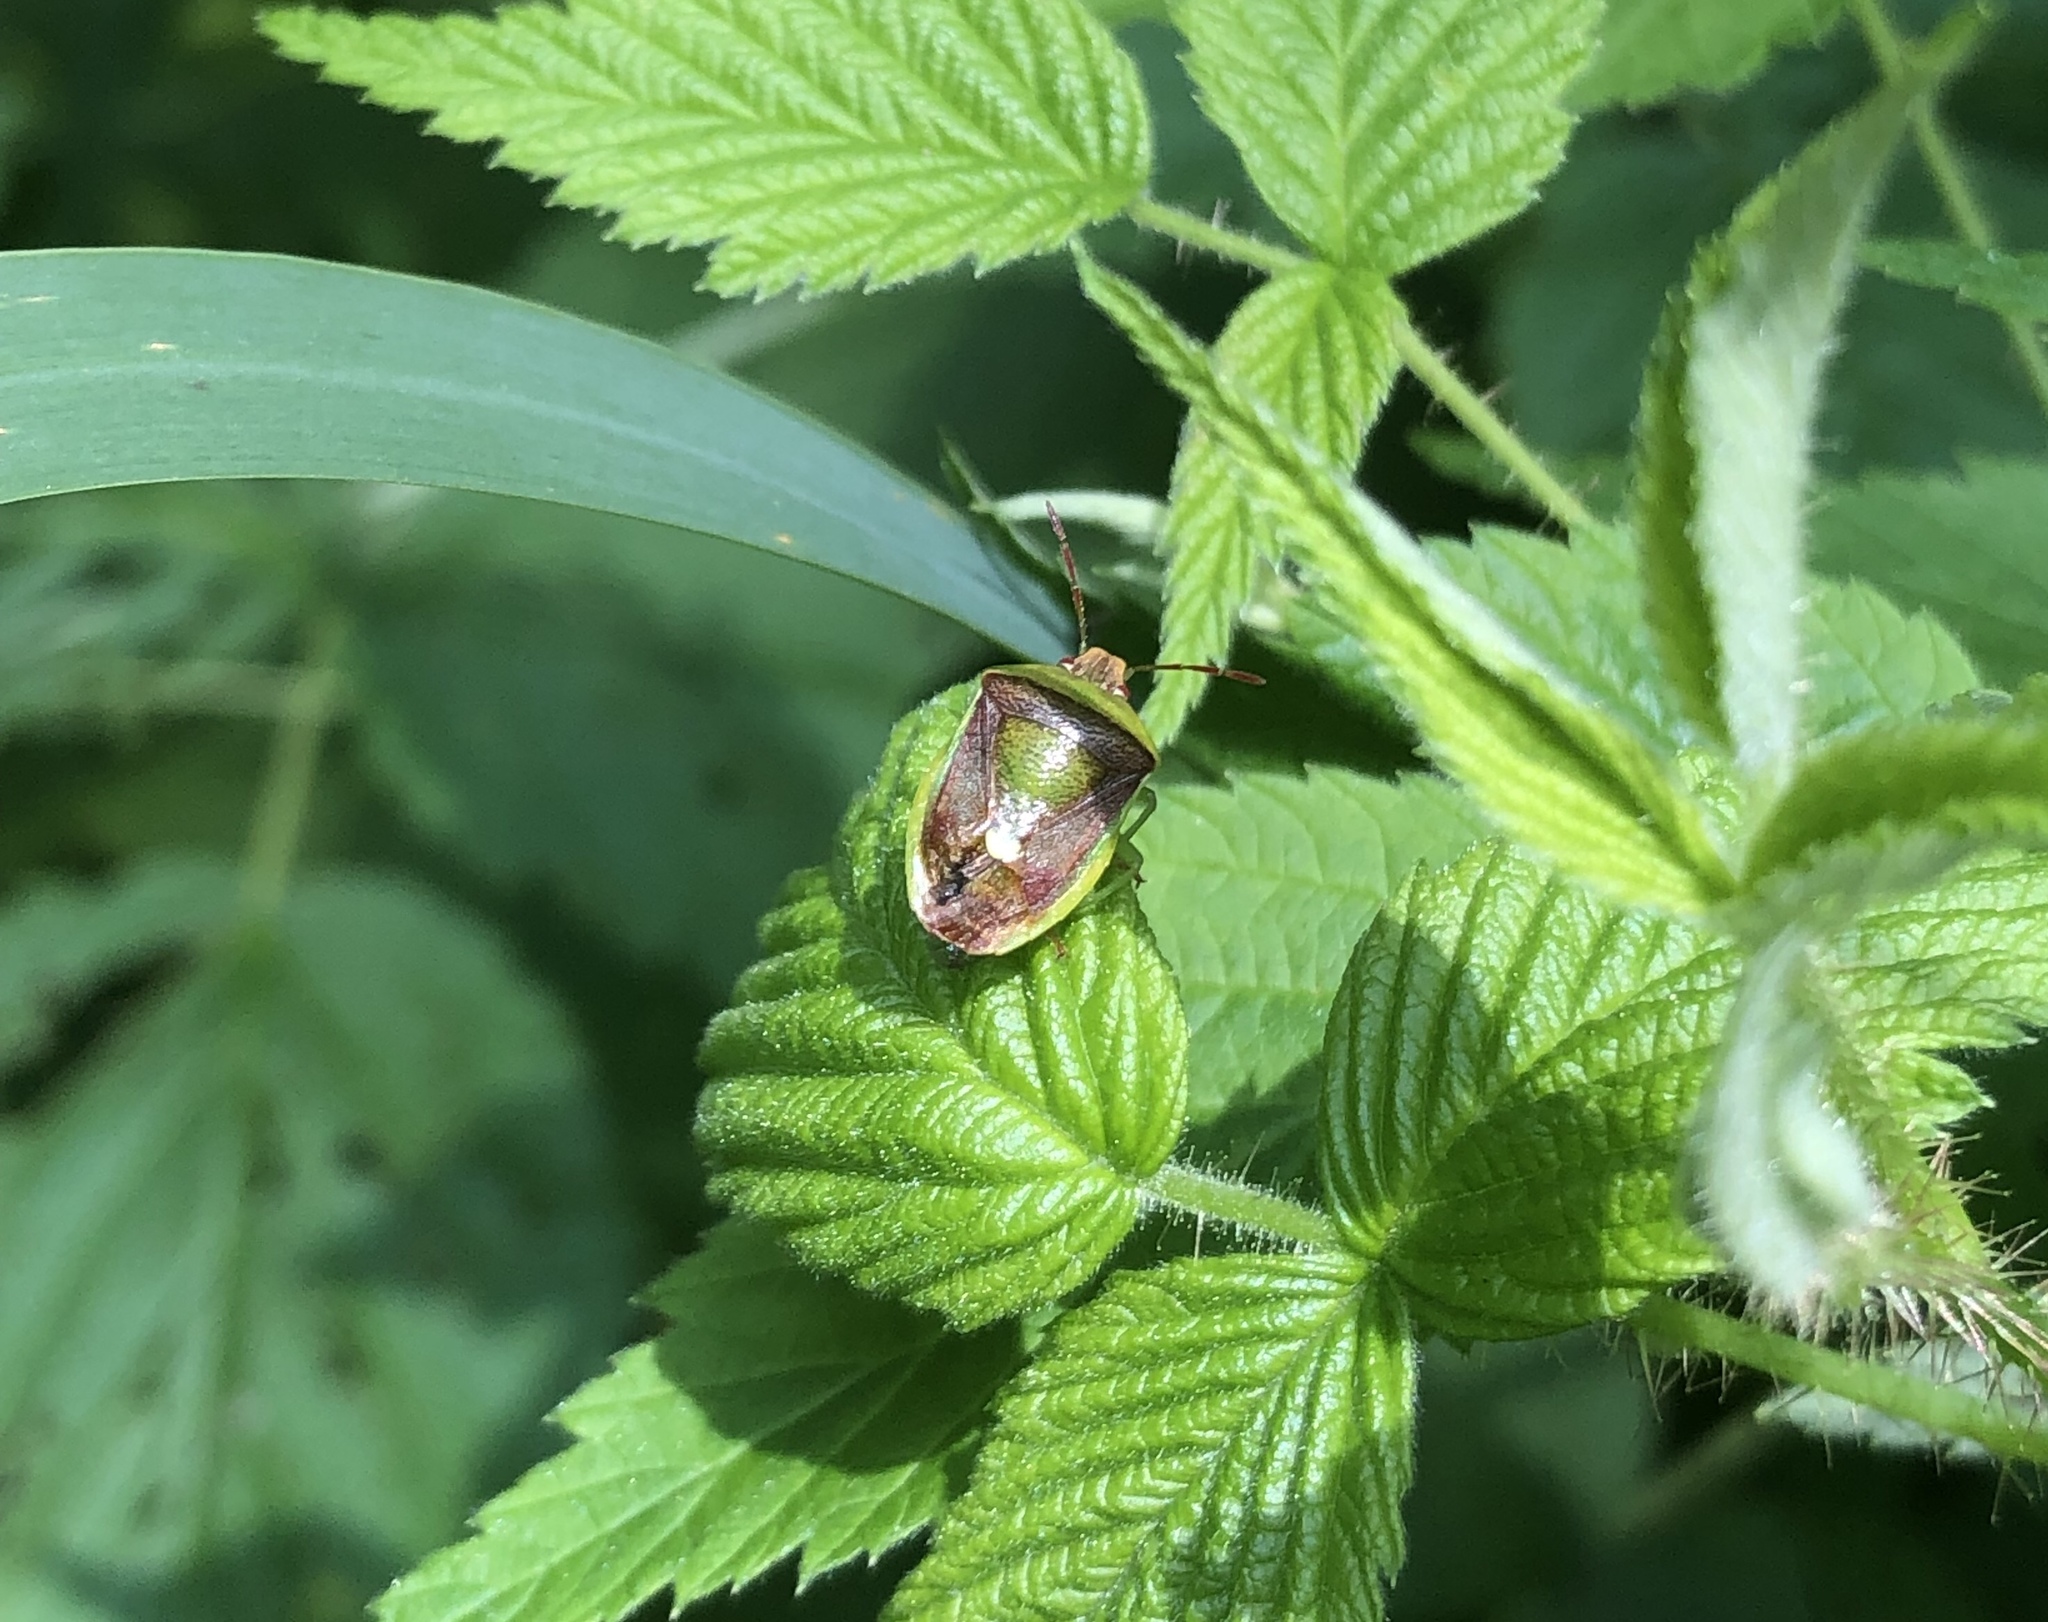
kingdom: Animalia
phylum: Arthropoda
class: Insecta
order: Hemiptera
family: Pentatomidae
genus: Banasa
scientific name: Banasa dimidiata
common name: Green burgundy stink bug
